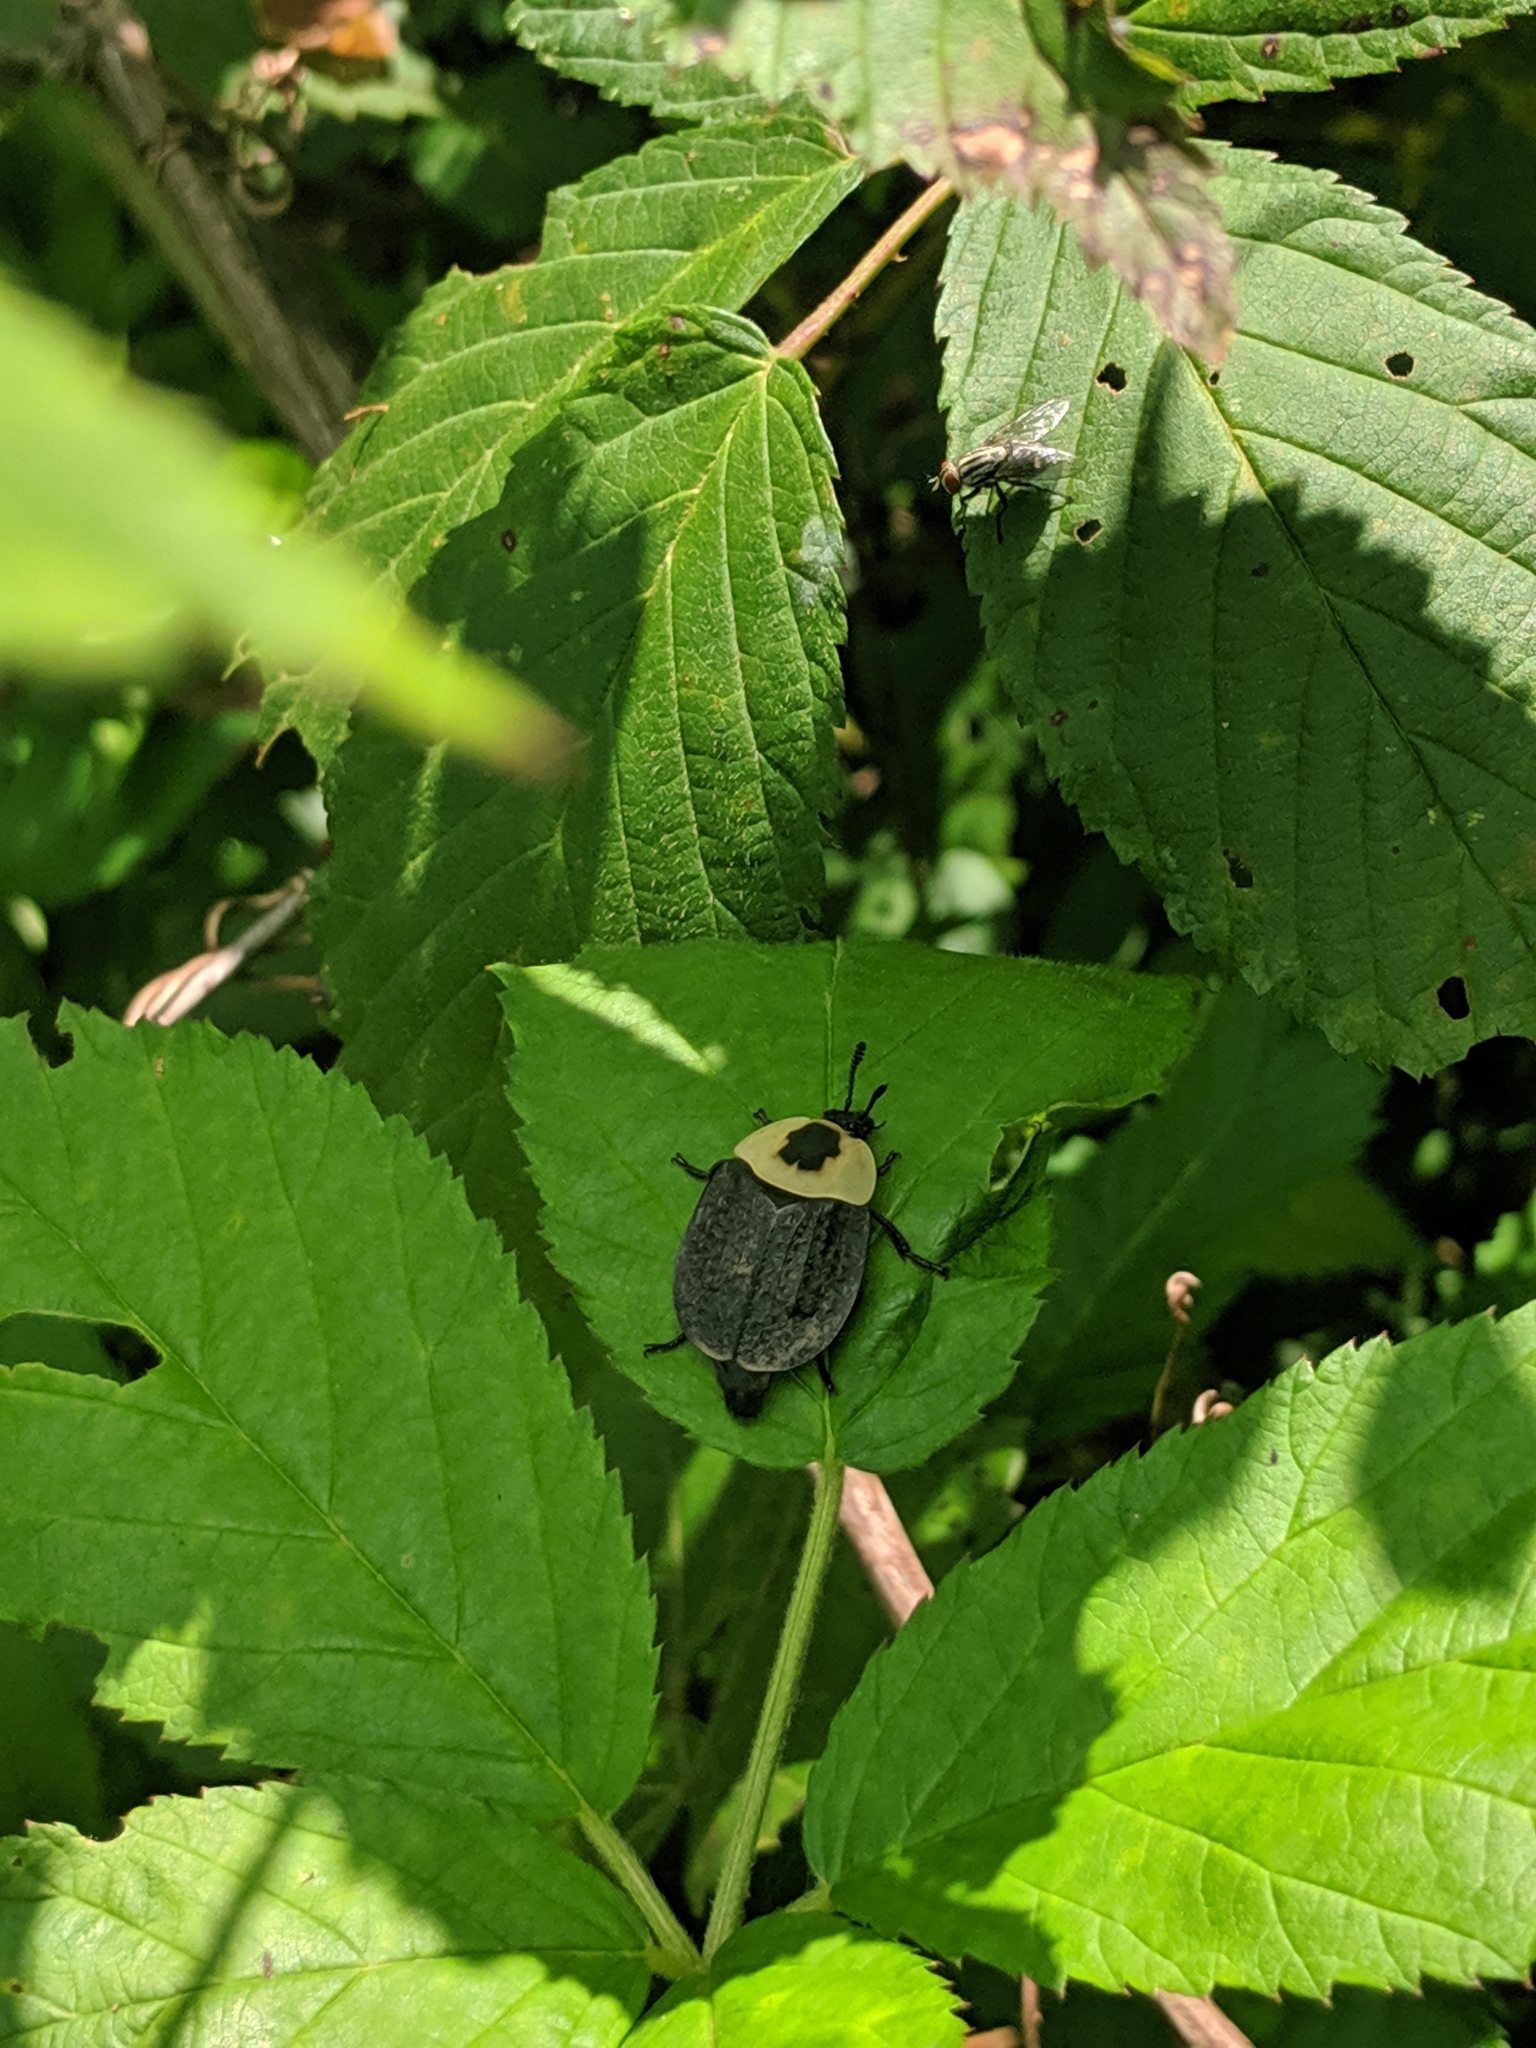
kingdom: Animalia
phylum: Arthropoda
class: Insecta
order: Coleoptera
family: Staphylinidae
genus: Necrophila
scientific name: Necrophila americana
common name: American carrion beetle
